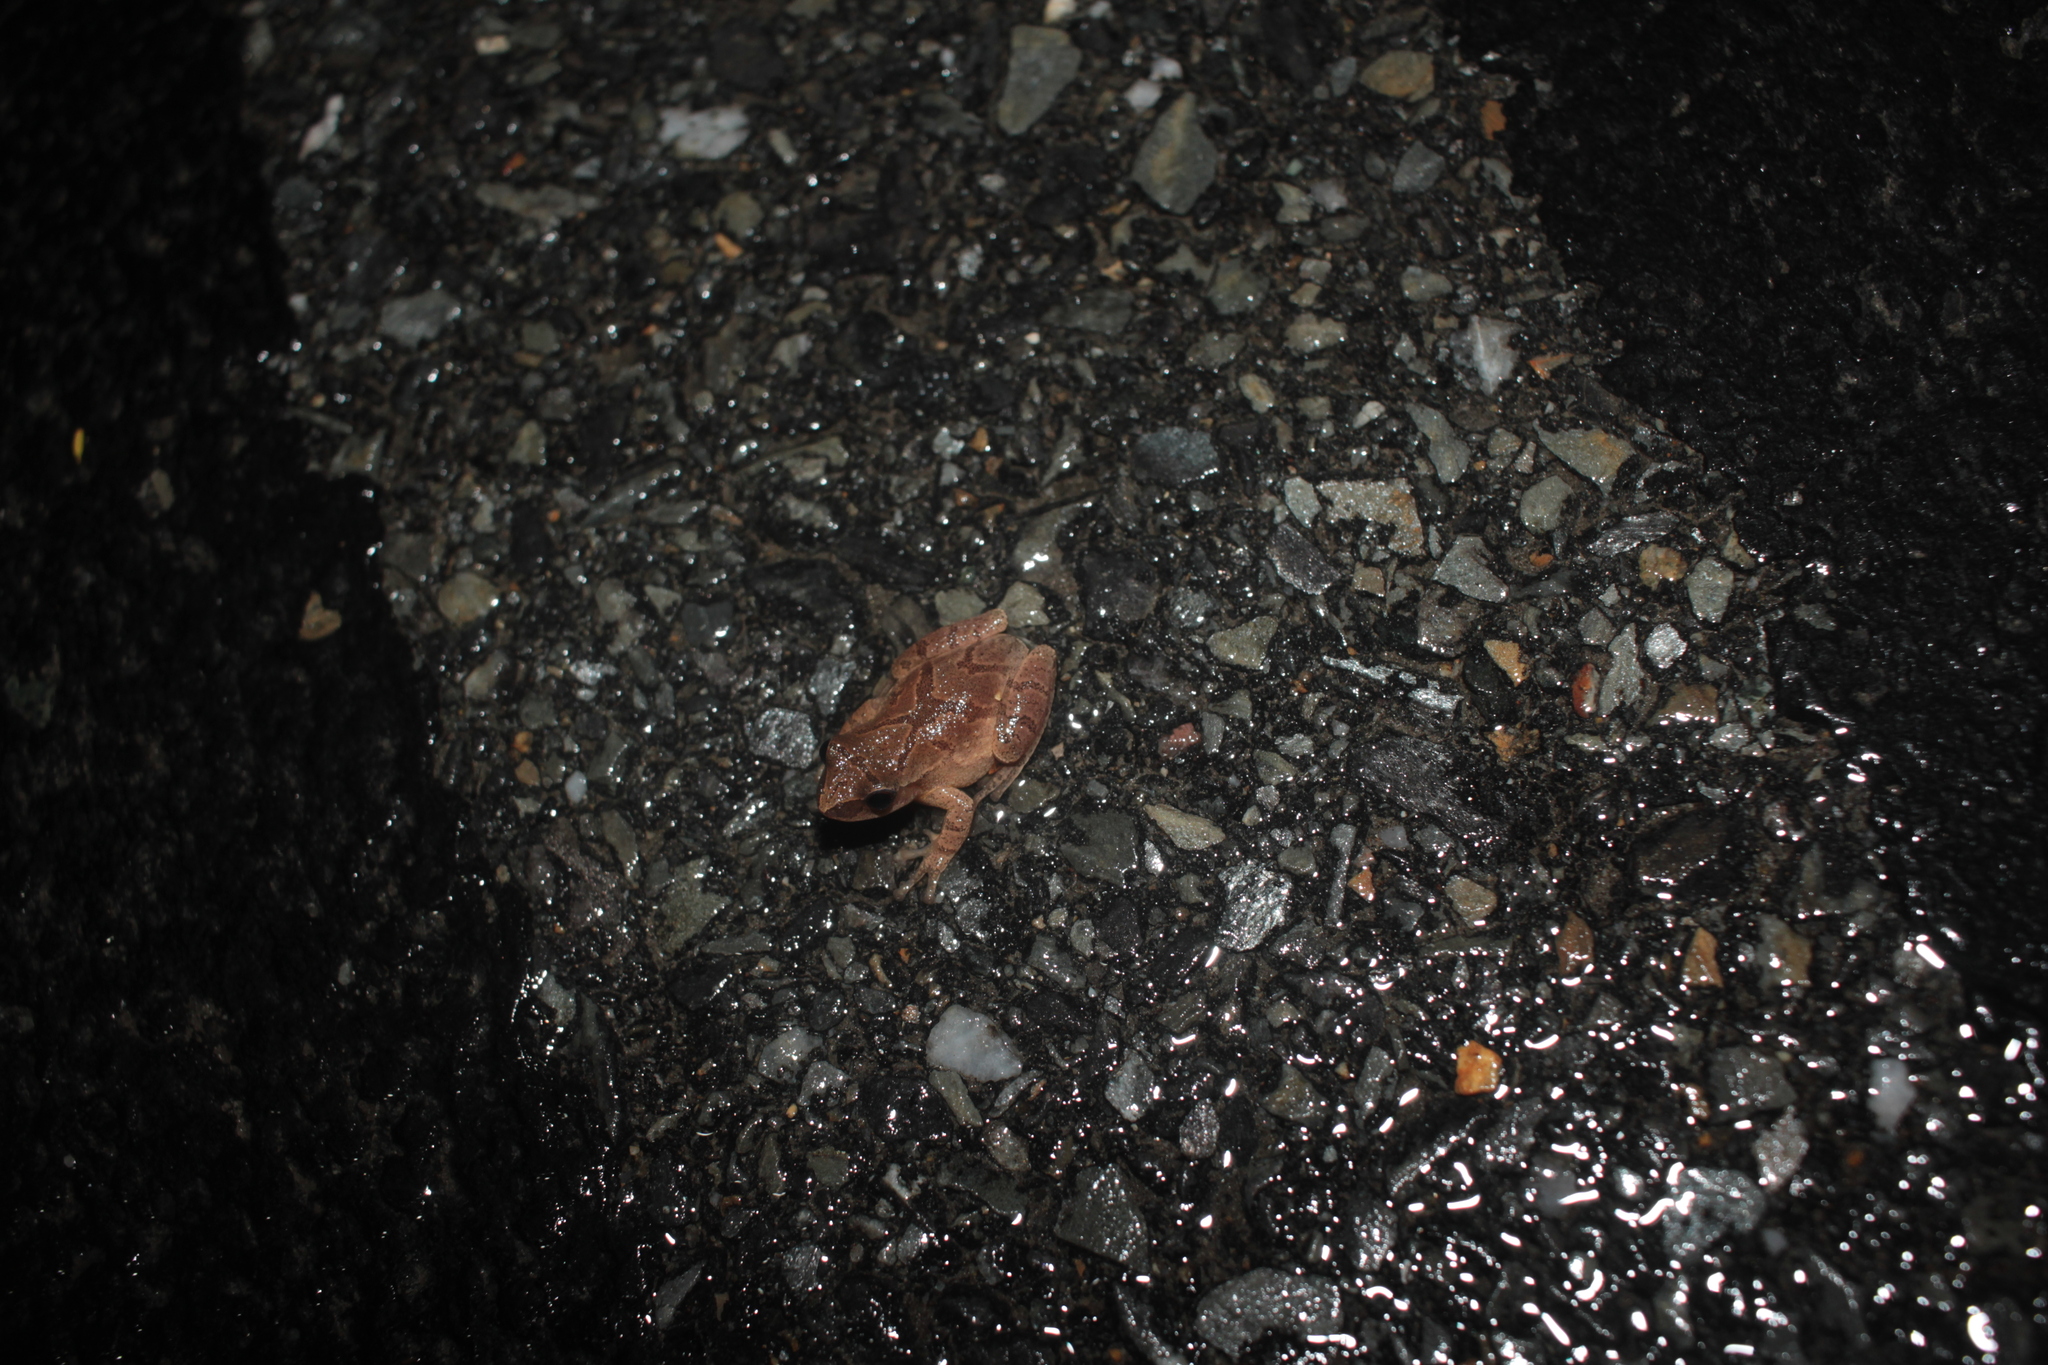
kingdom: Animalia
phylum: Chordata
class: Amphibia
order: Anura
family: Hylidae
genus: Pseudacris
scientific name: Pseudacris crucifer
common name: Spring peeper
